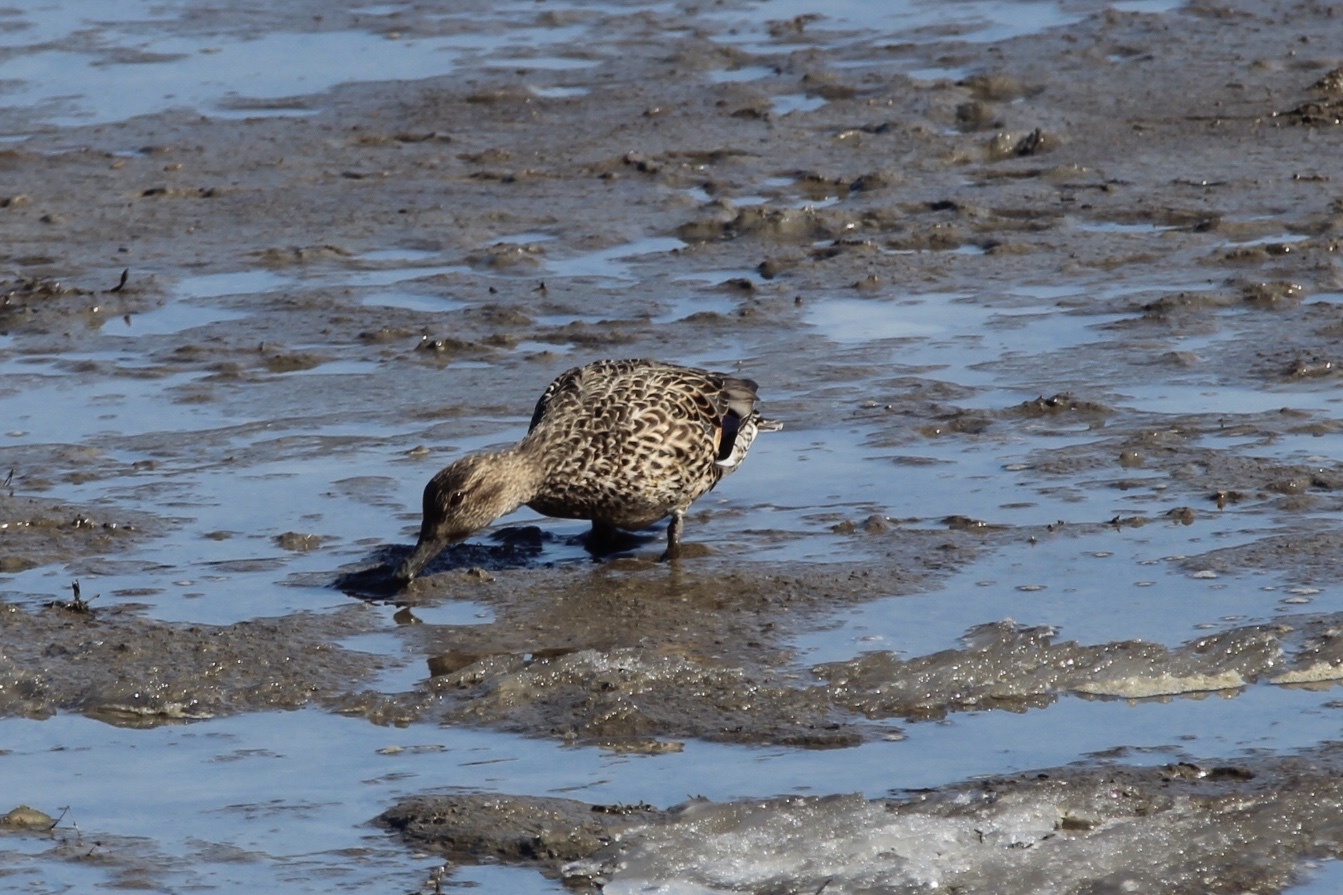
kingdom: Animalia
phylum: Chordata
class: Aves
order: Anseriformes
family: Anatidae
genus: Anas
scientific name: Anas crecca
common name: Eurasian teal
